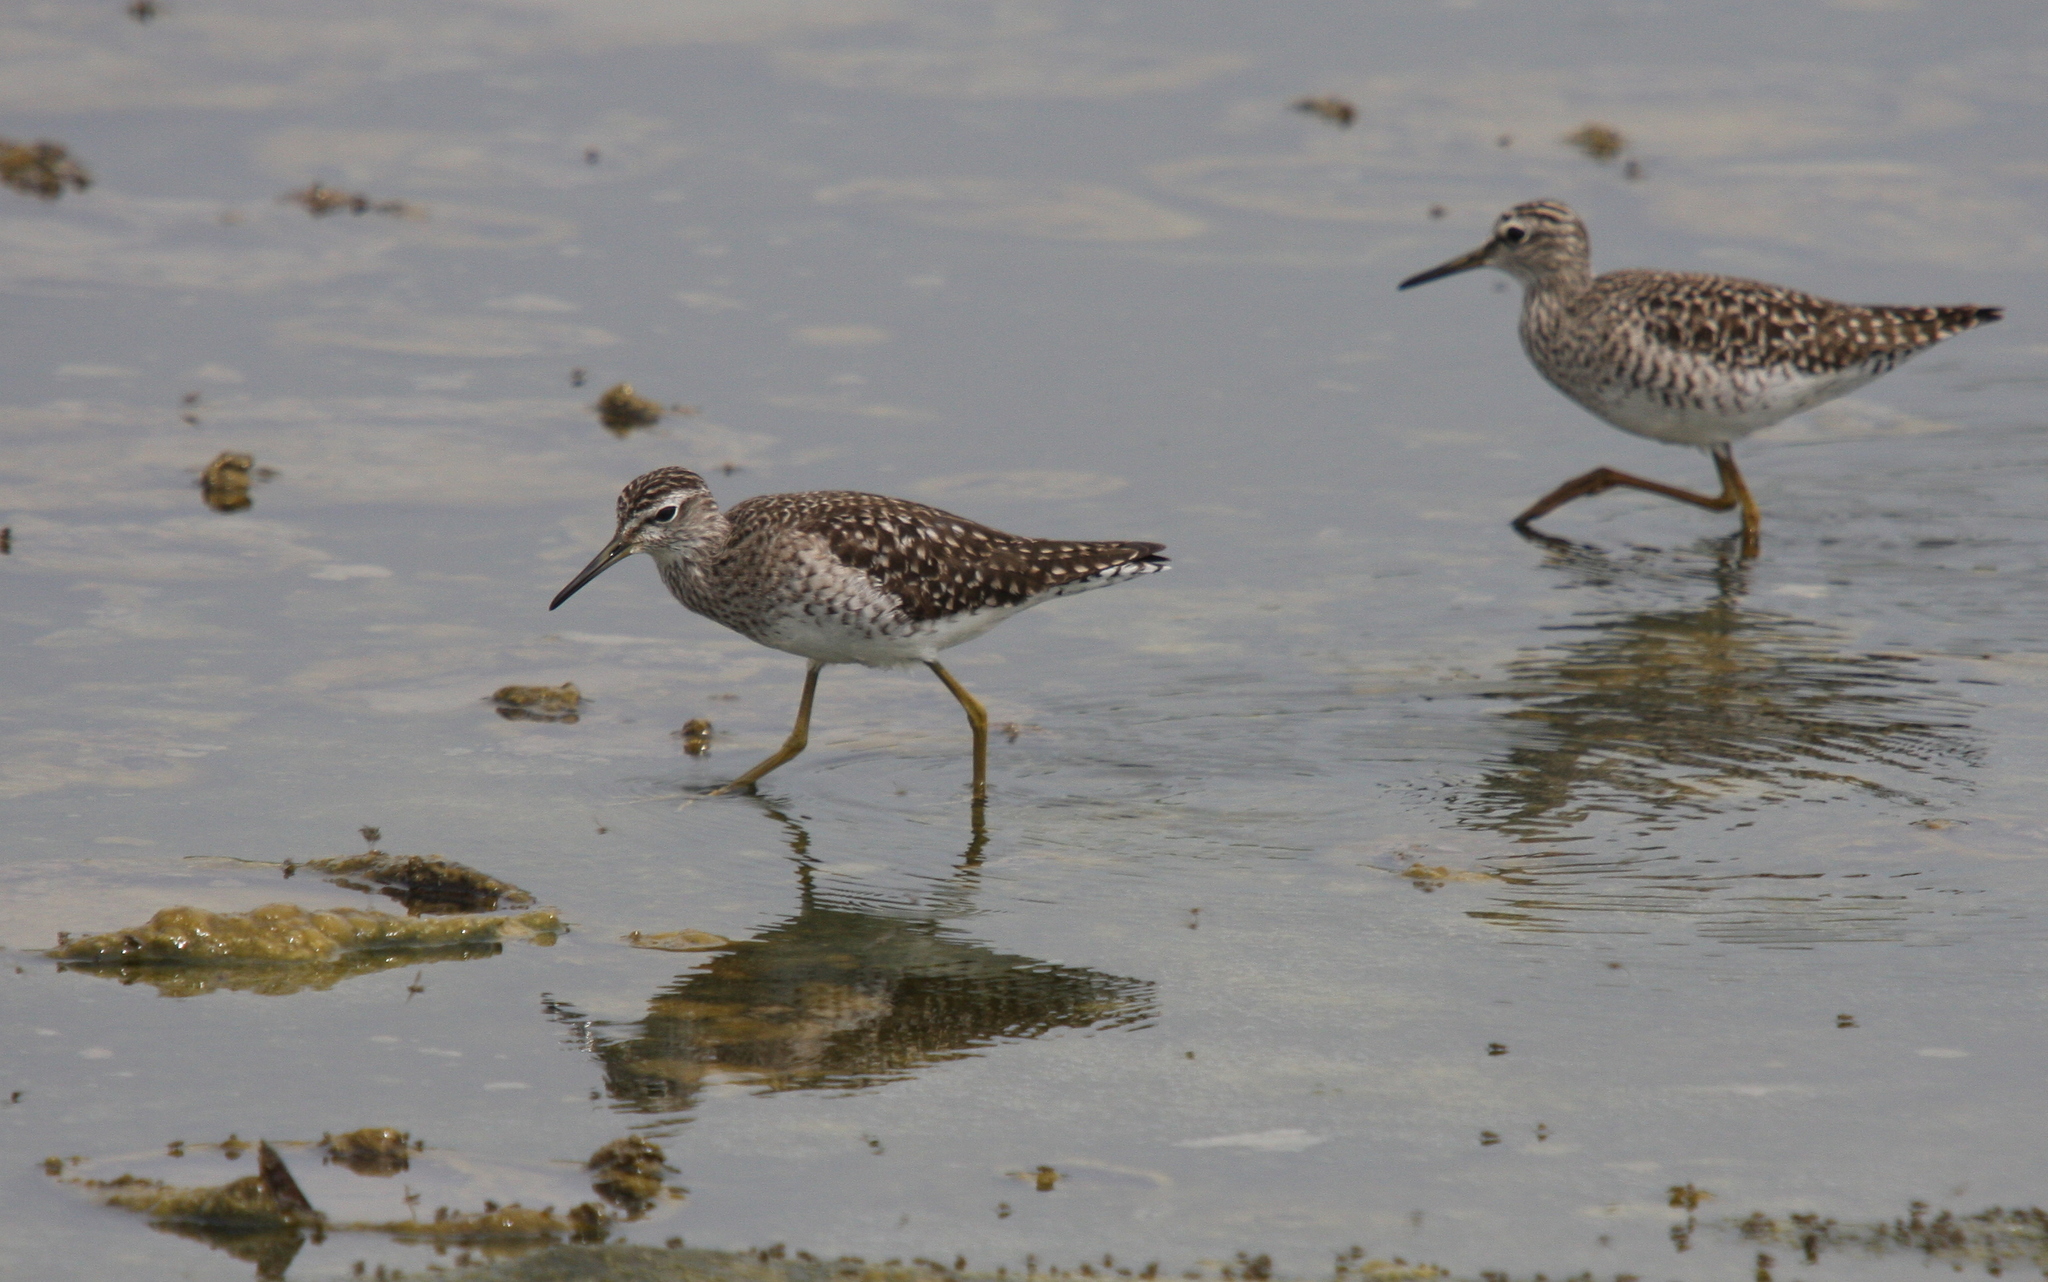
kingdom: Animalia
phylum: Chordata
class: Aves
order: Charadriiformes
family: Scolopacidae
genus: Tringa
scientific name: Tringa glareola
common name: Wood sandpiper
